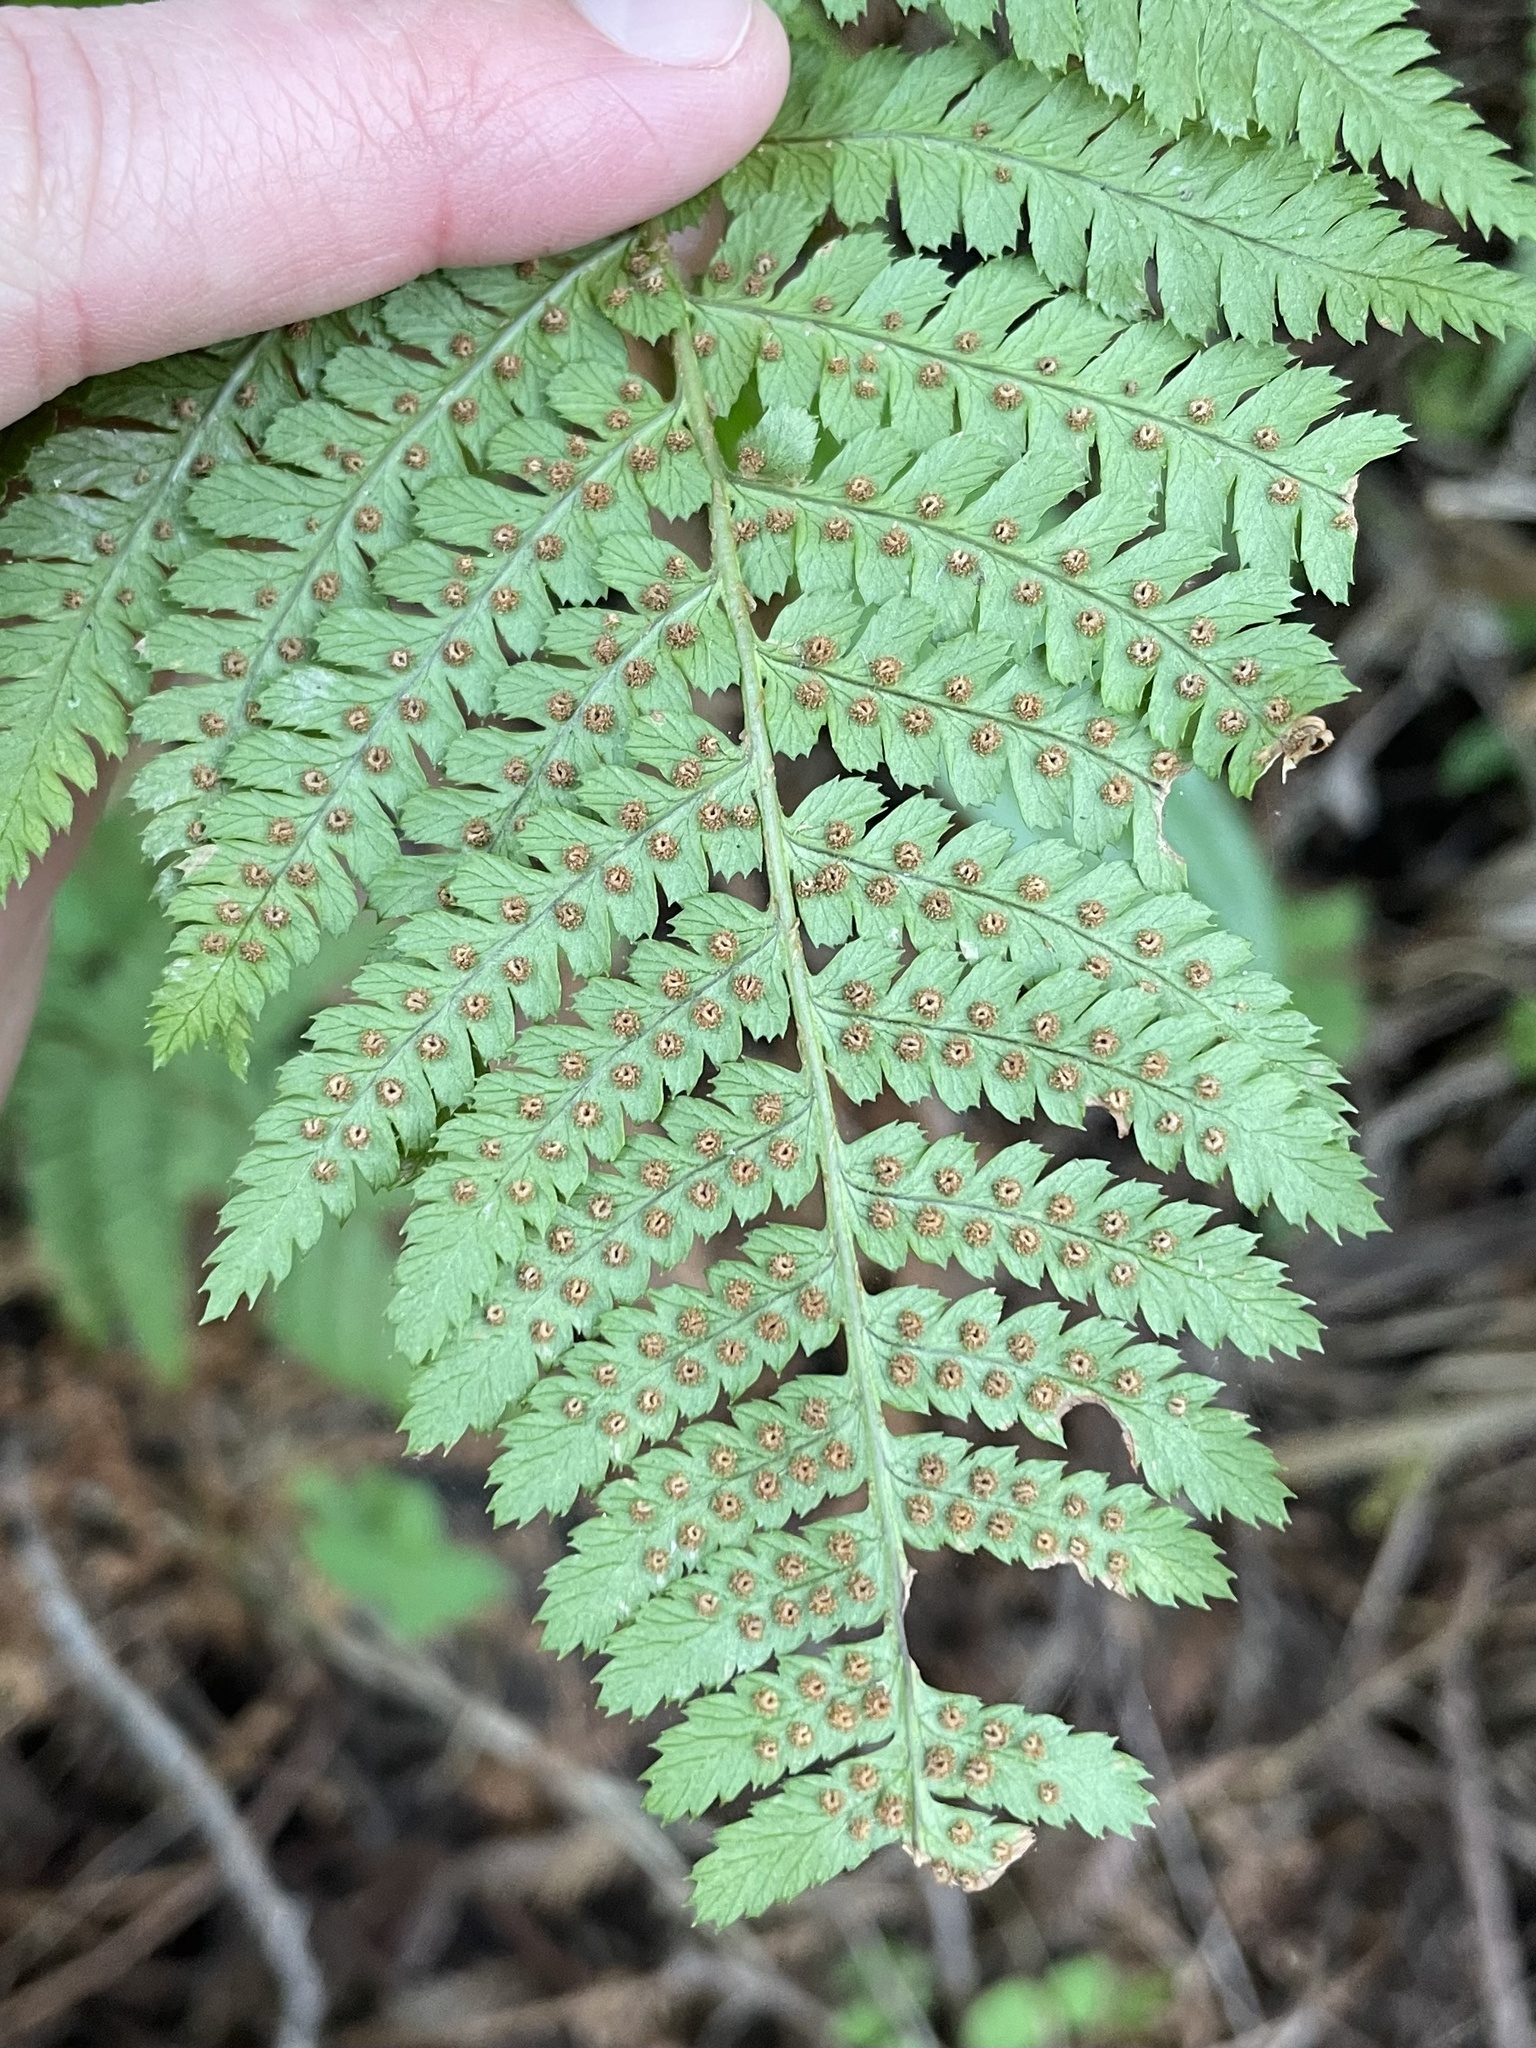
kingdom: Plantae
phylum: Tracheophyta
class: Polypodiopsida
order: Polypodiales
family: Dryopteridaceae
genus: Dryopteris
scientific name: Dryopteris arguta
